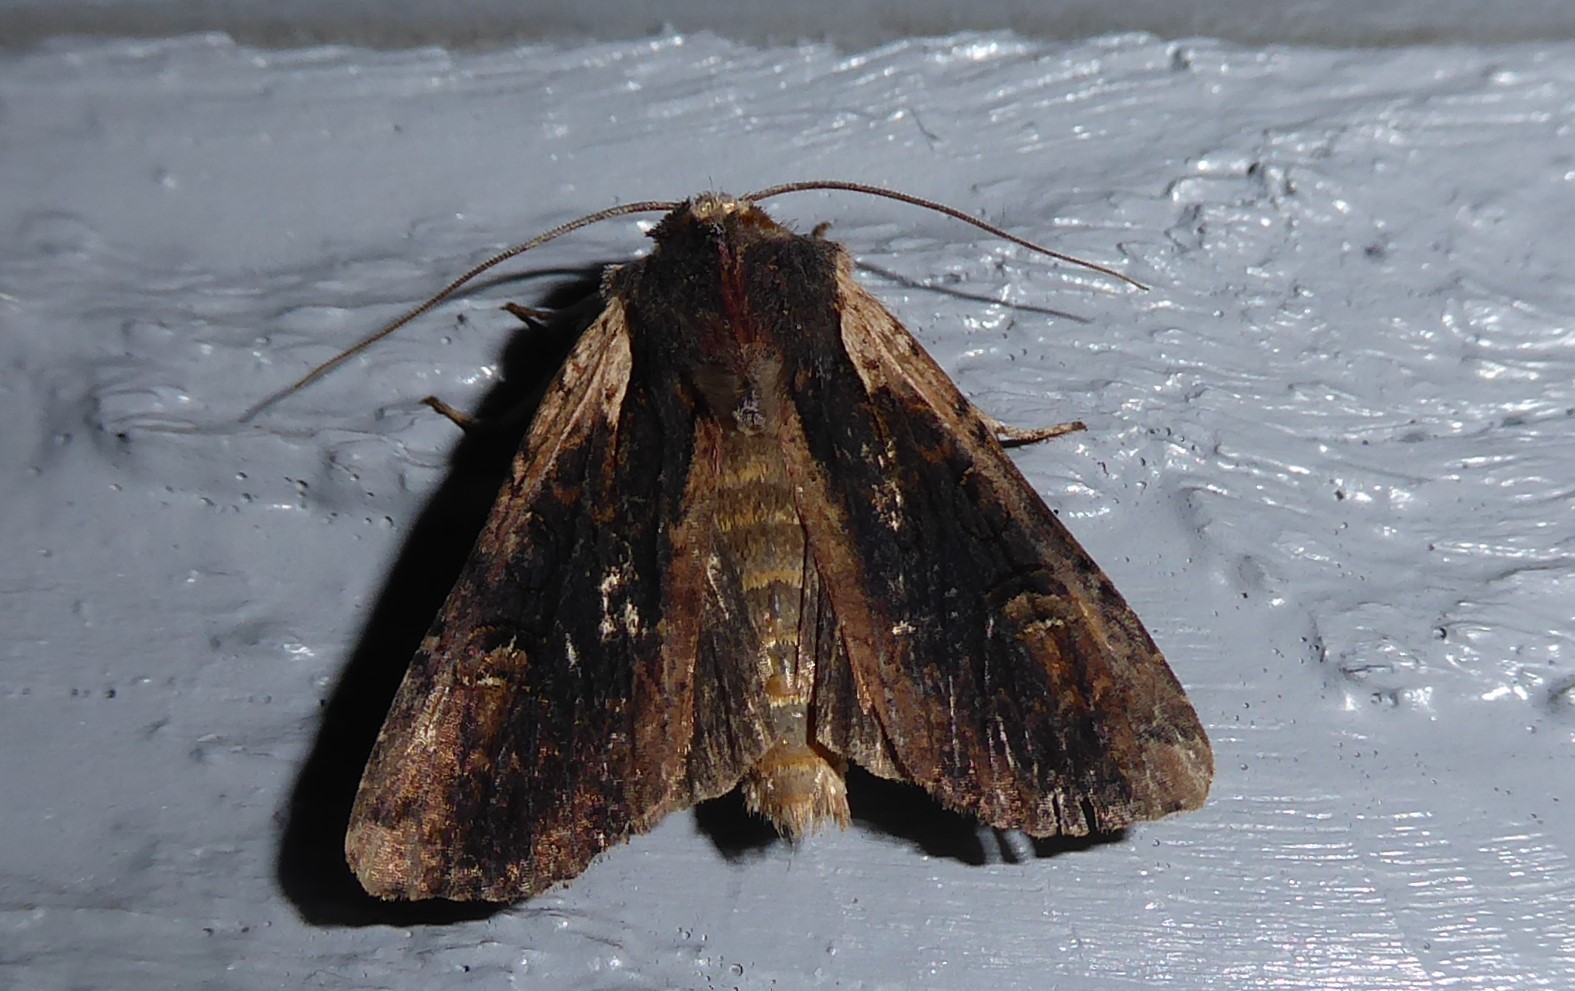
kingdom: Animalia
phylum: Arthropoda
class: Insecta
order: Lepidoptera
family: Noctuidae
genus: Ichneutica
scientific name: Ichneutica omoplaca
